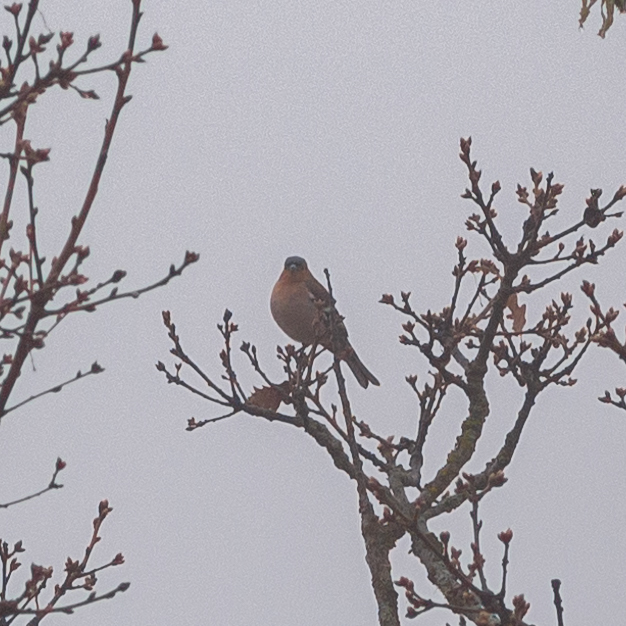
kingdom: Animalia
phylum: Chordata
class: Aves
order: Passeriformes
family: Fringillidae
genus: Fringilla
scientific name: Fringilla coelebs
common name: Common chaffinch
